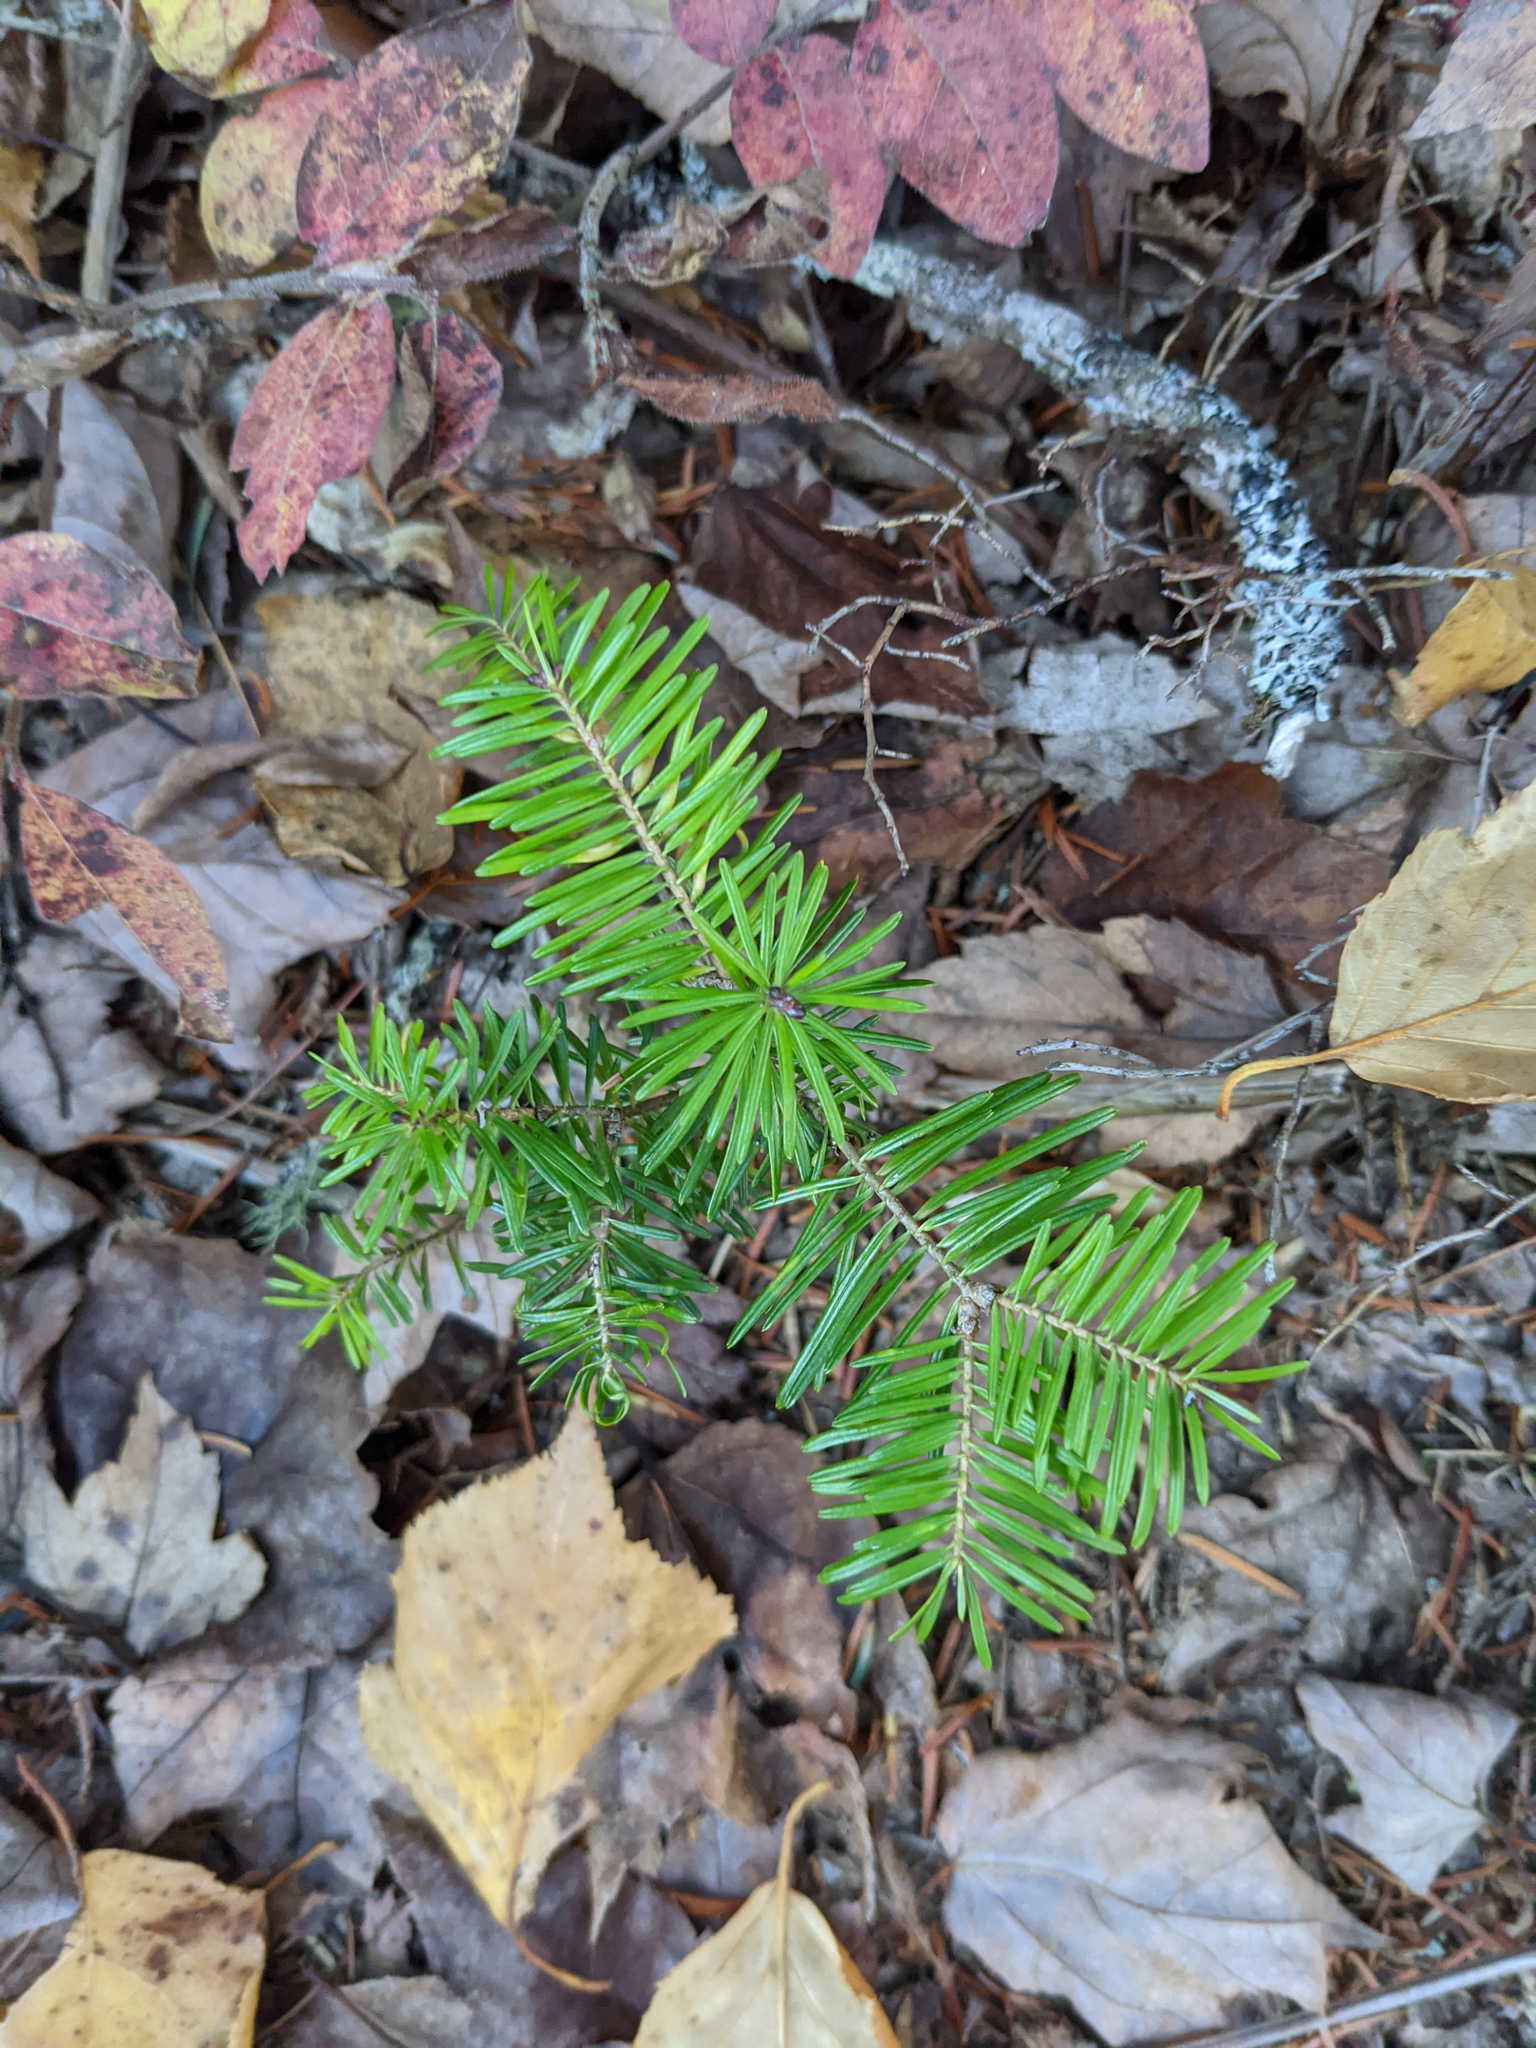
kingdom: Plantae
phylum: Tracheophyta
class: Pinopsida
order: Pinales
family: Pinaceae
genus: Abies
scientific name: Abies balsamea
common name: Balsam fir
